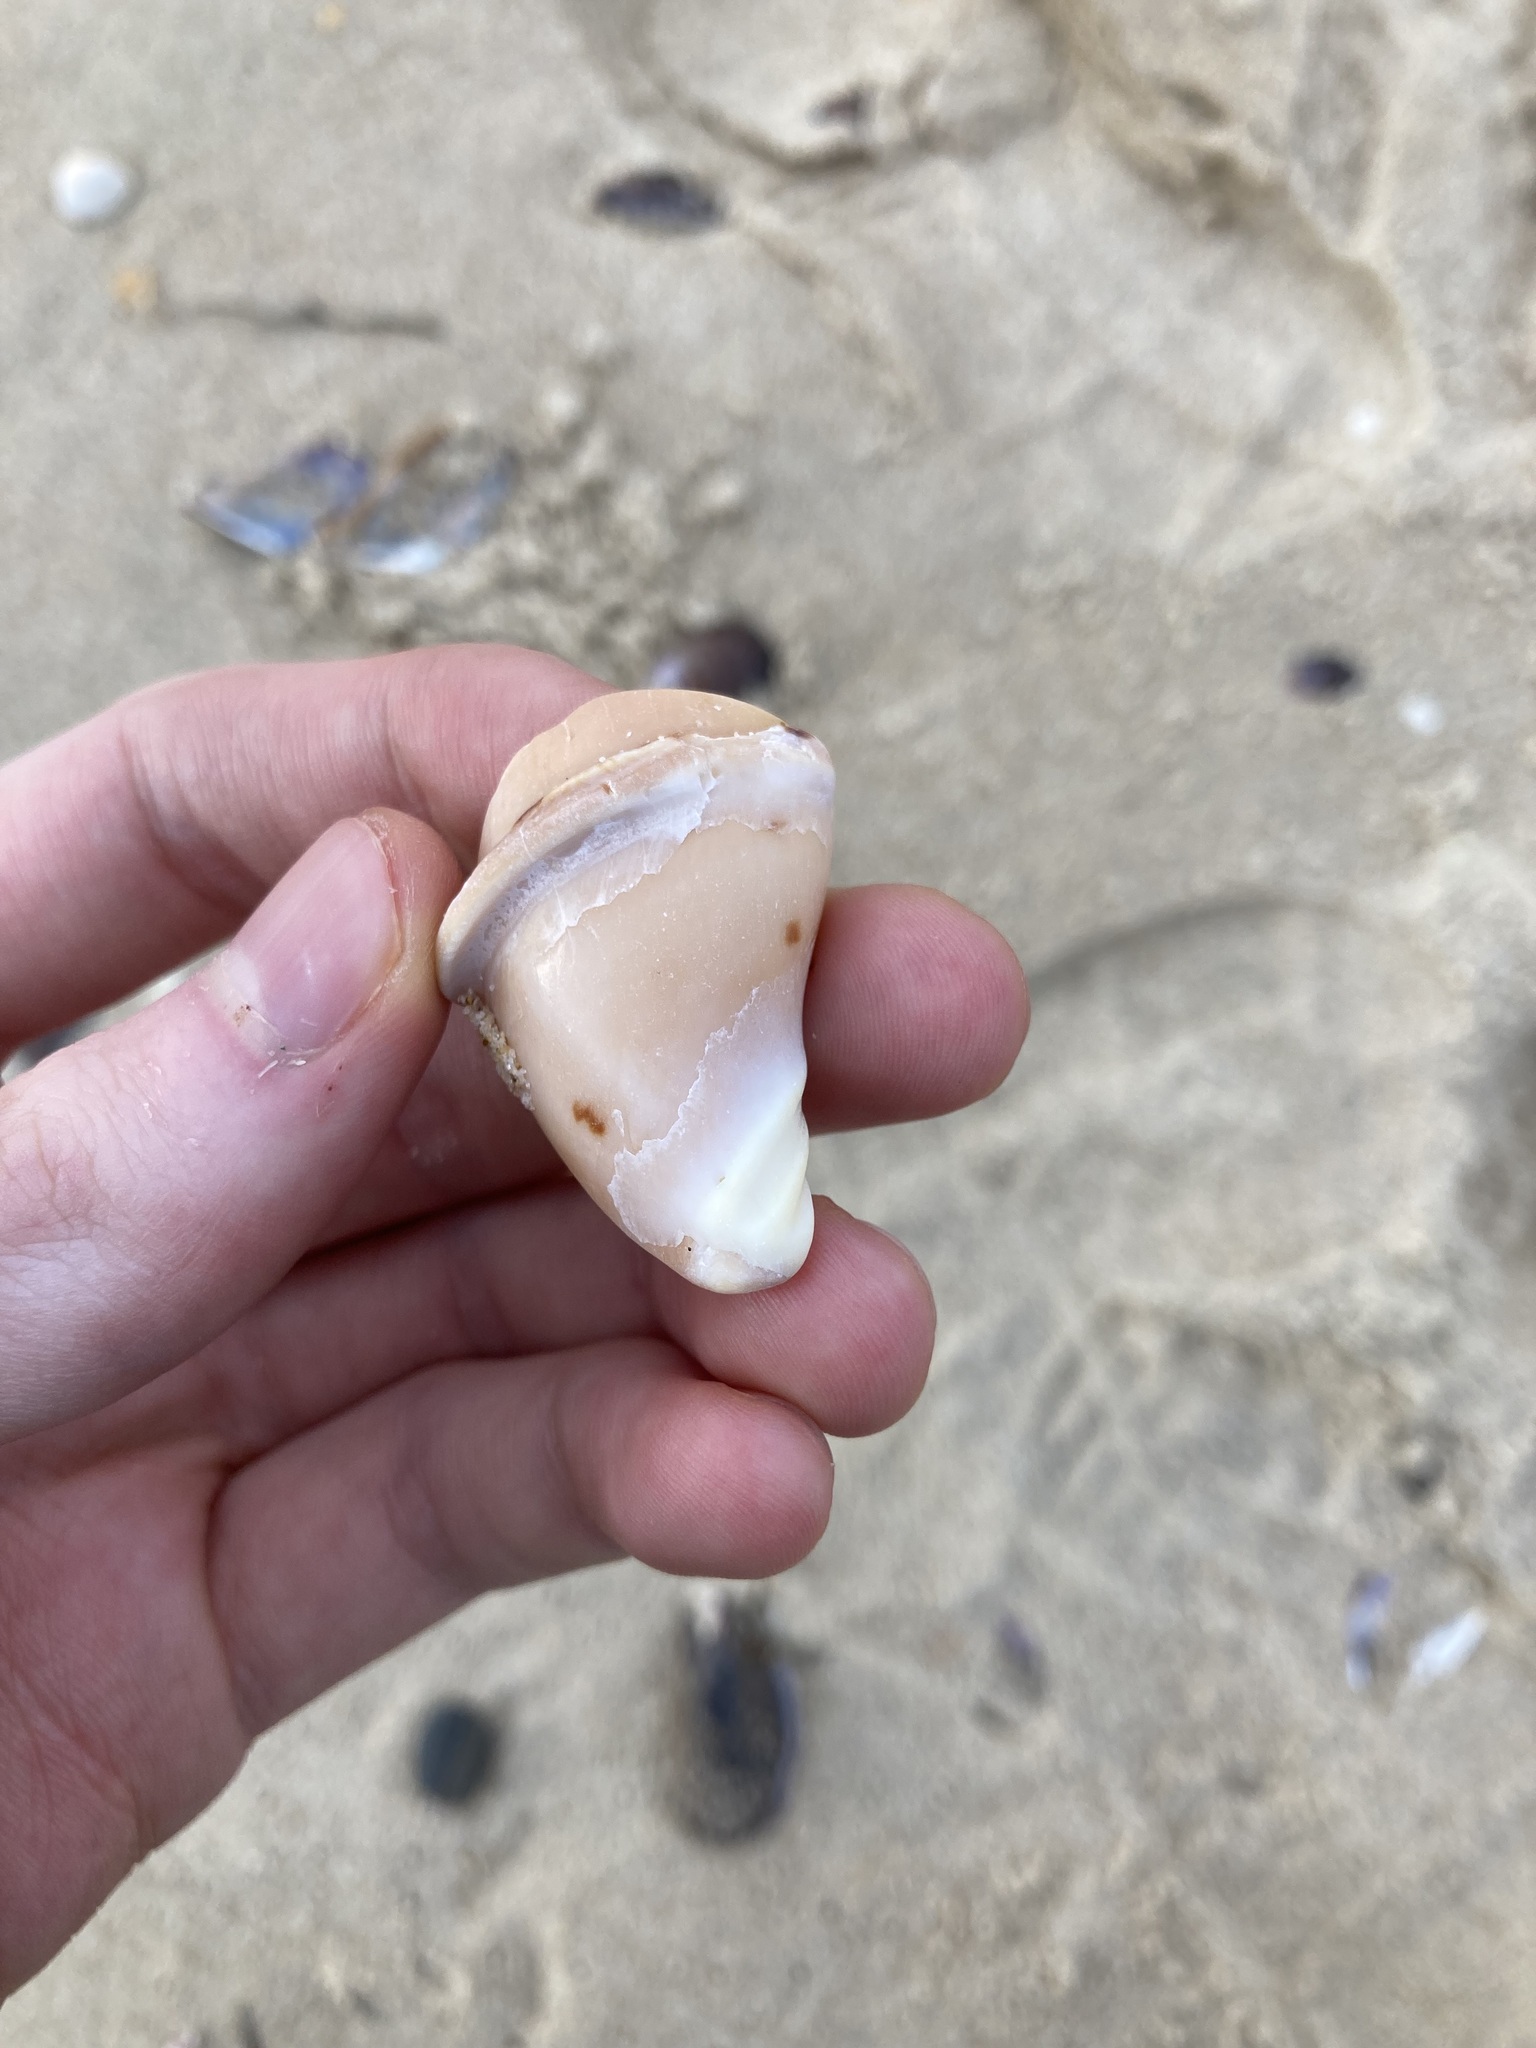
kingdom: Animalia
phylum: Mollusca
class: Gastropoda
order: Neogastropoda
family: Volutidae
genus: Cymbiola
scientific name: Cymbiola magnifica
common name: Magnificent volute
